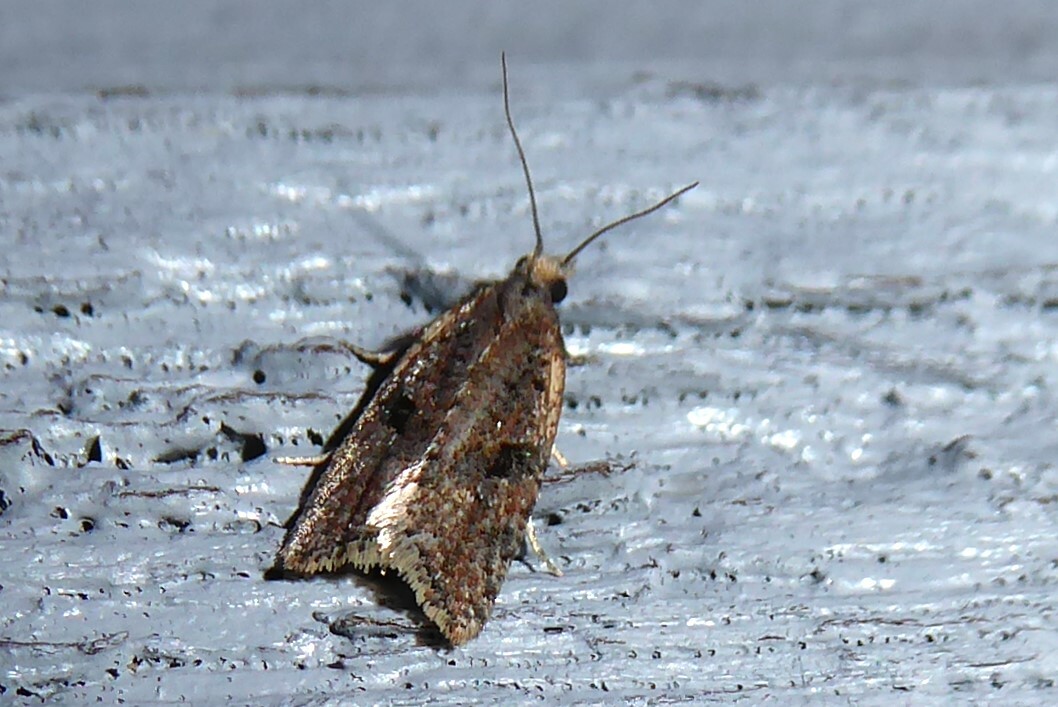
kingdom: Animalia
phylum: Arthropoda
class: Insecta
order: Lepidoptera
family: Tortricidae
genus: Capua
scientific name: Capua semiferana
